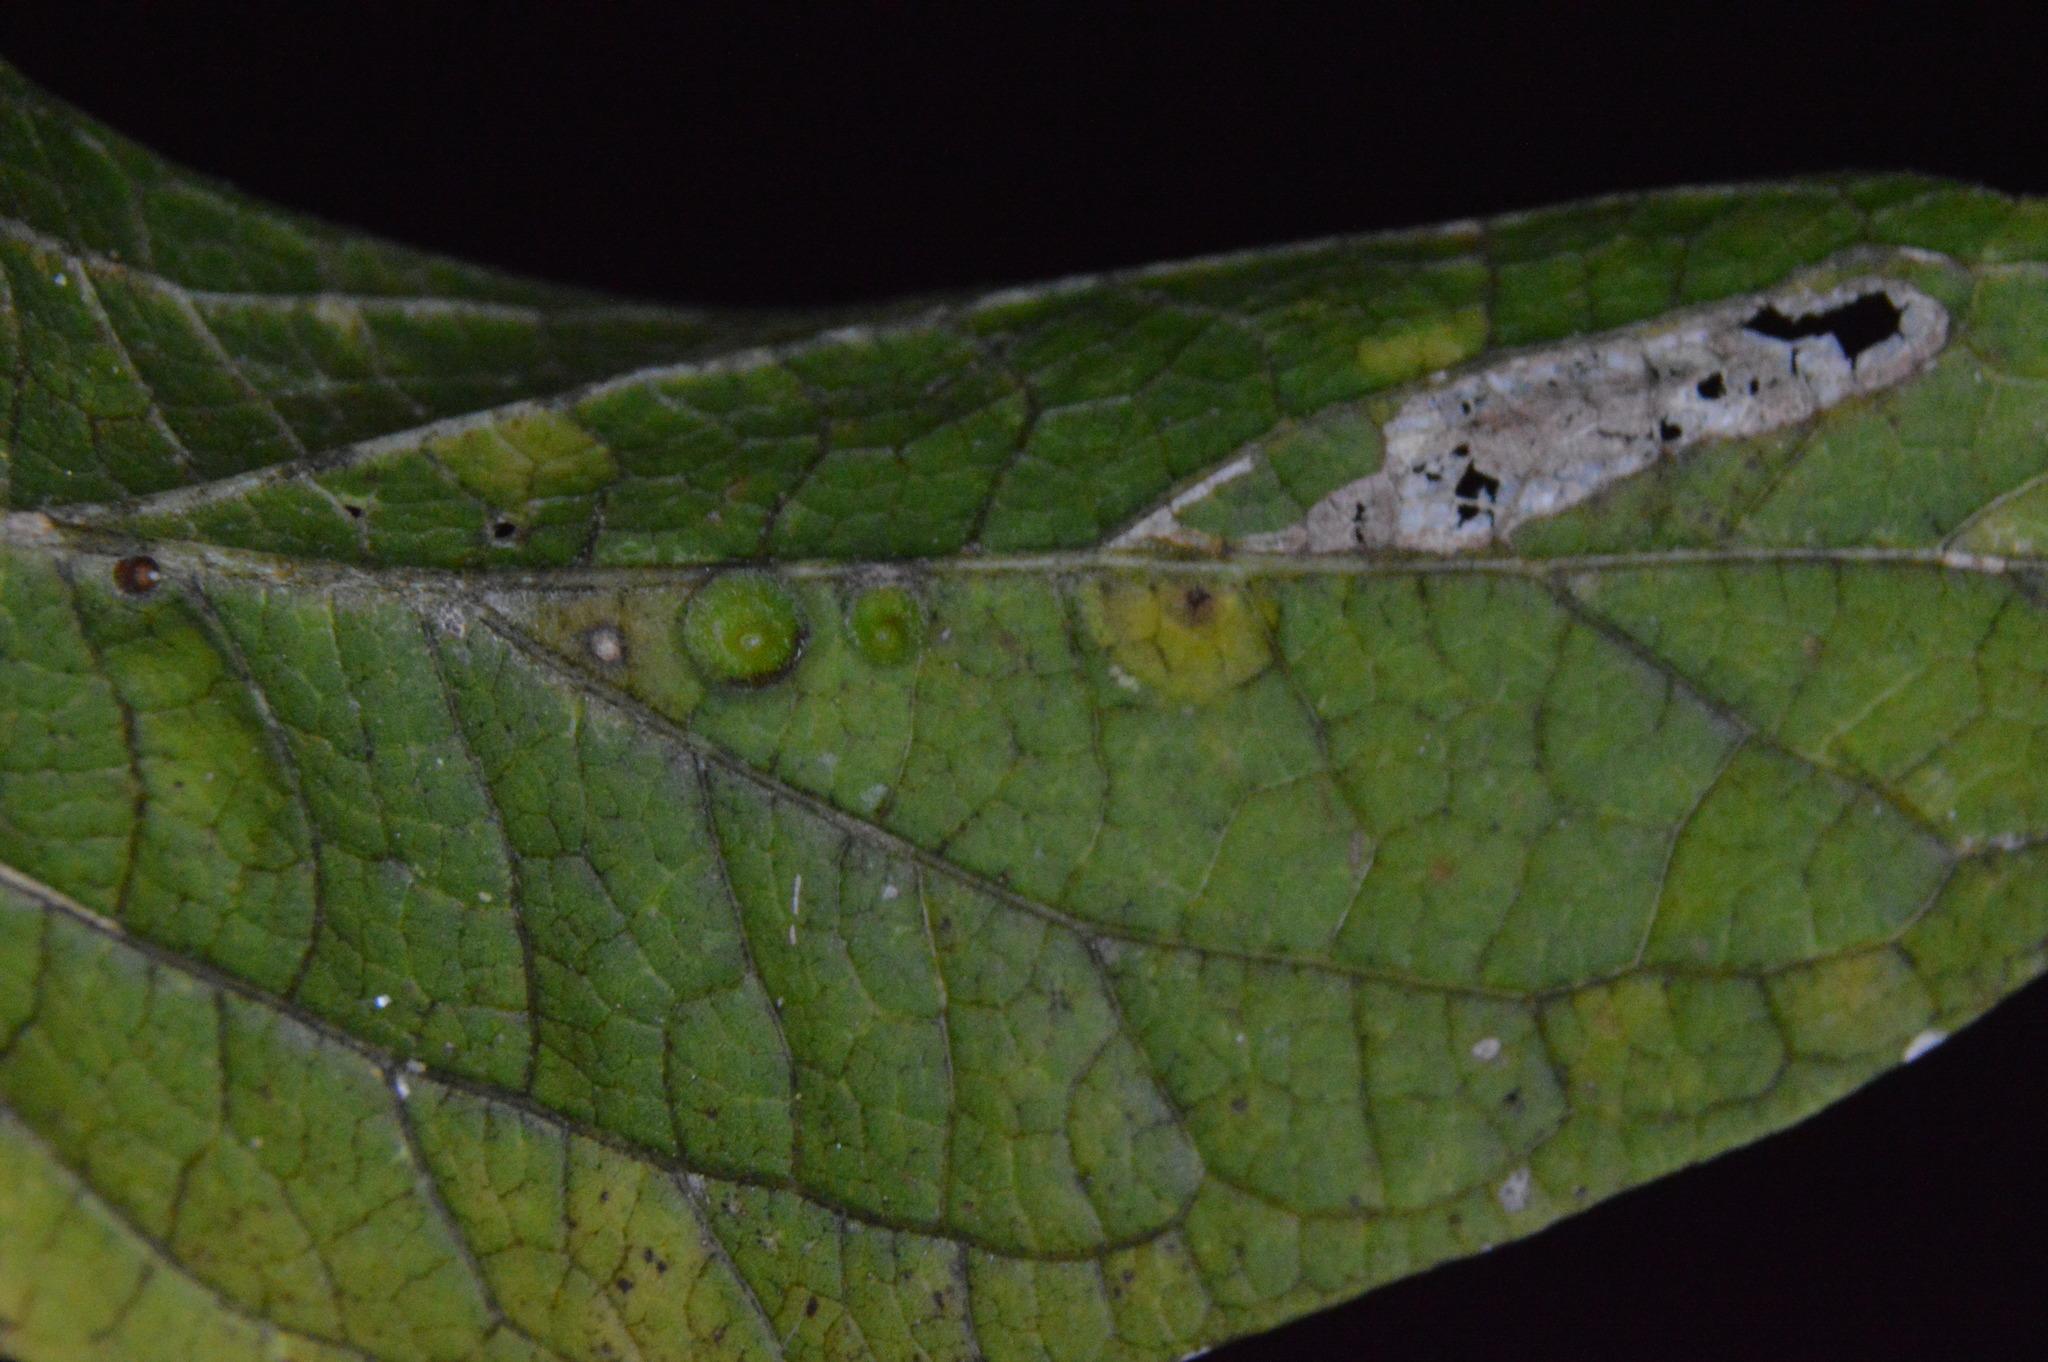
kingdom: Animalia
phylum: Arthropoda
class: Insecta
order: Diptera
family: Cecidomyiidae
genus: Celticecis
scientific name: Celticecis globosa
